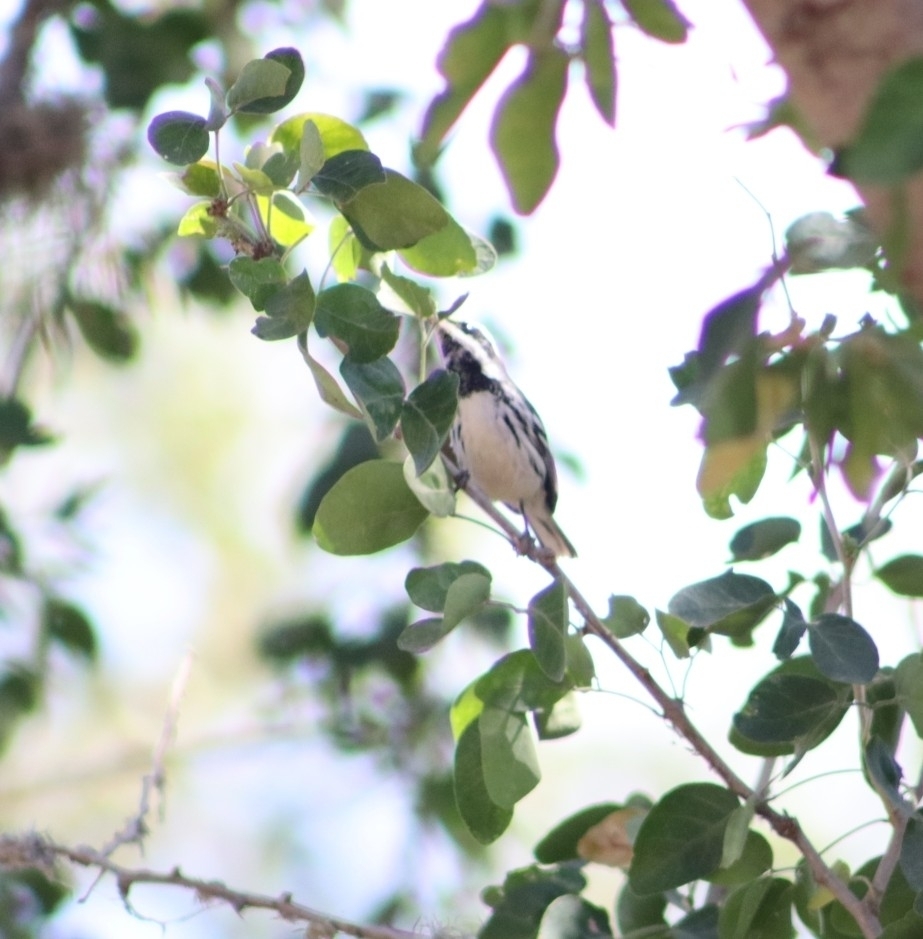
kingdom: Animalia
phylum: Chordata
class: Aves
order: Passeriformes
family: Parulidae
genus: Setophaga
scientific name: Setophaga nigrescens
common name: Black-throated gray warbler
